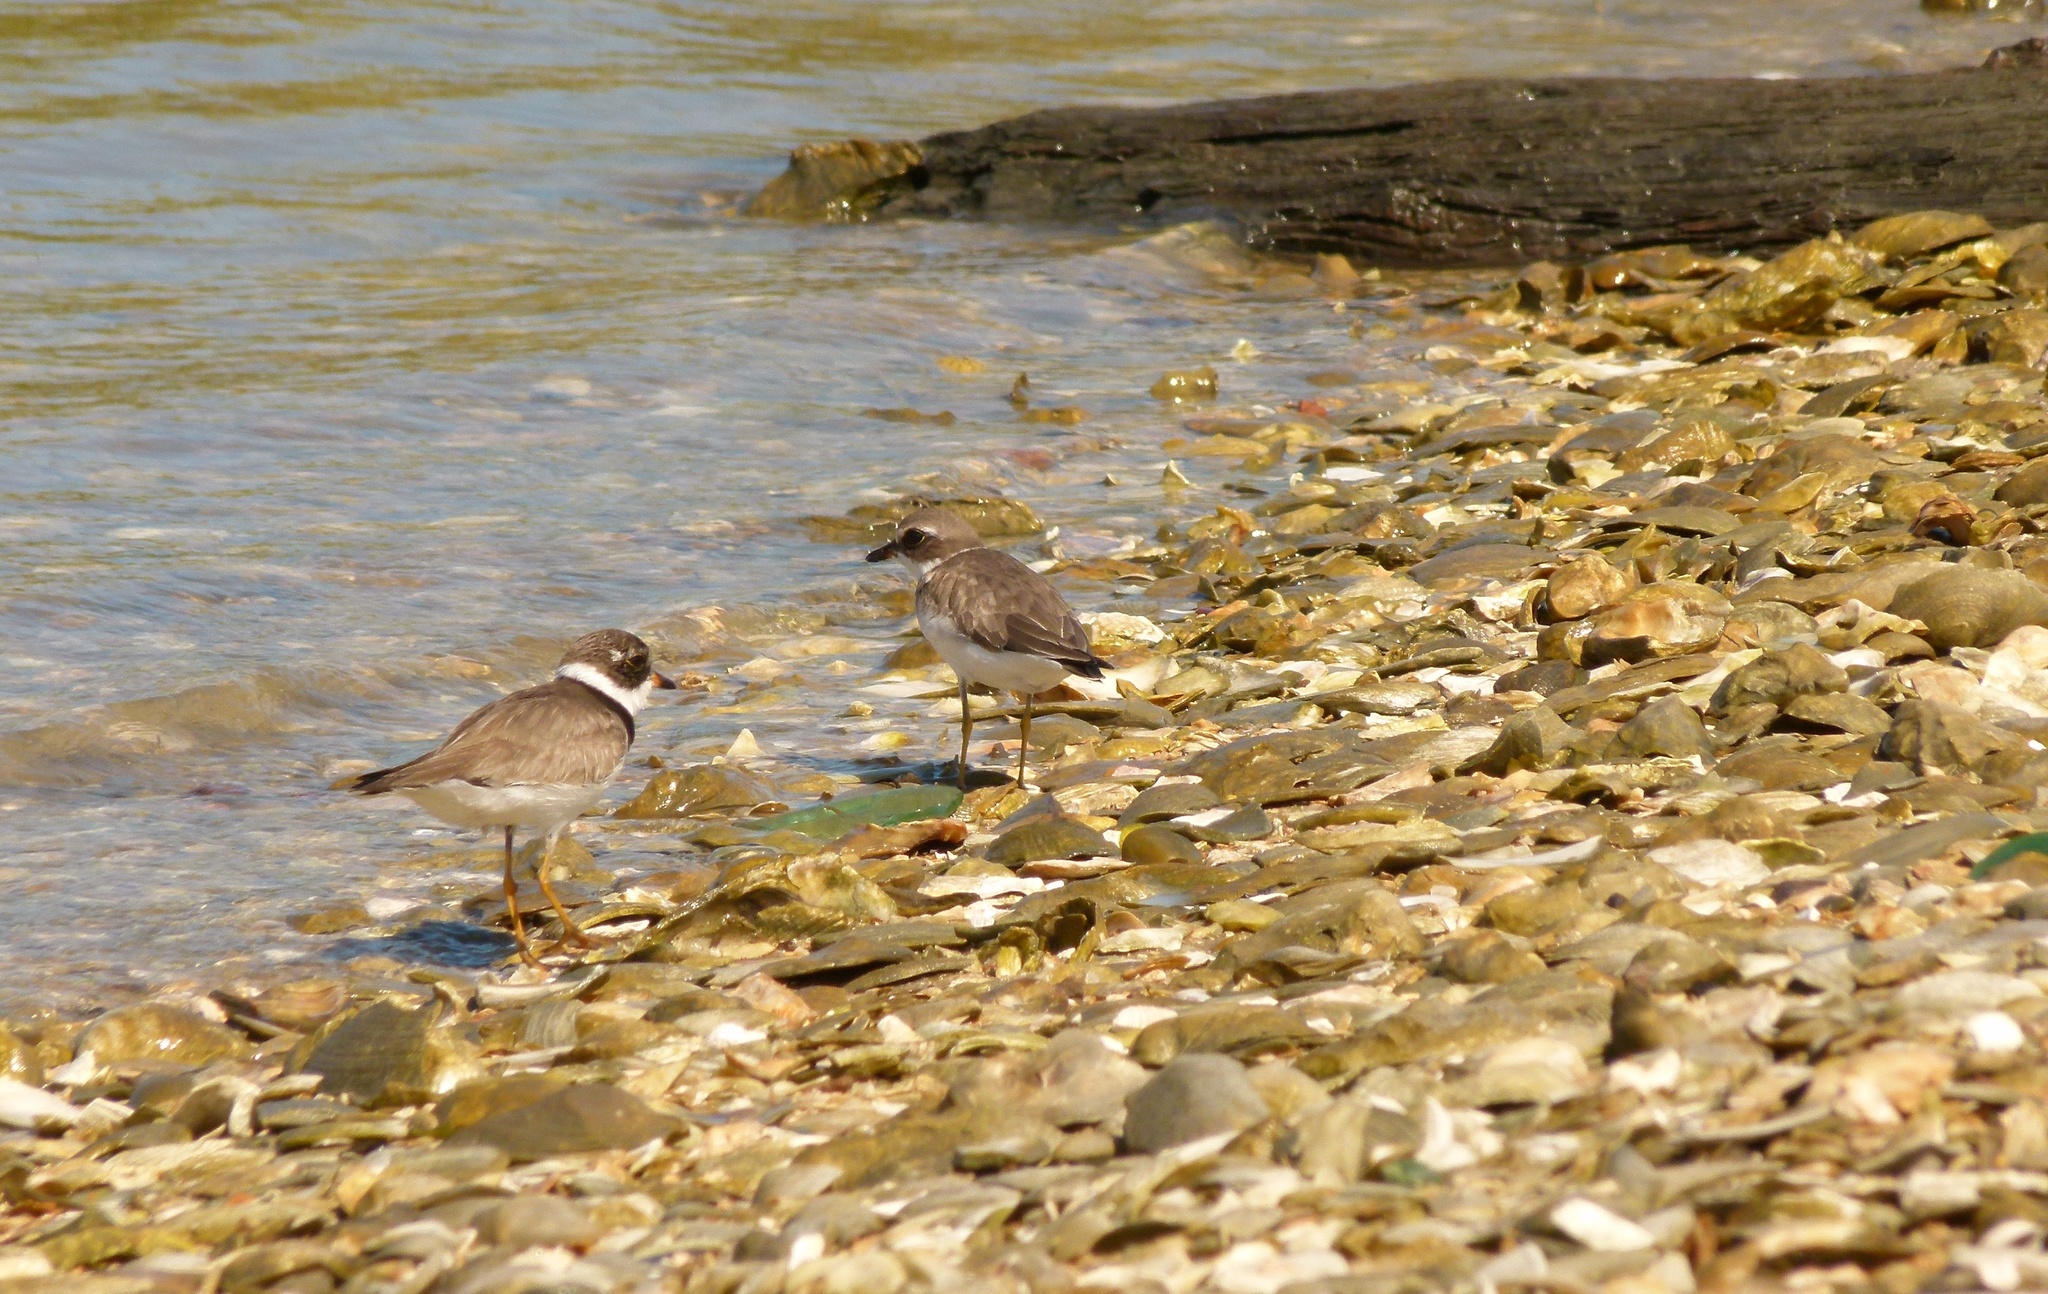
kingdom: Animalia
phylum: Chordata
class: Aves
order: Charadriiformes
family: Charadriidae
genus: Charadrius
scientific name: Charadrius semipalmatus
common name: Semipalmated plover
